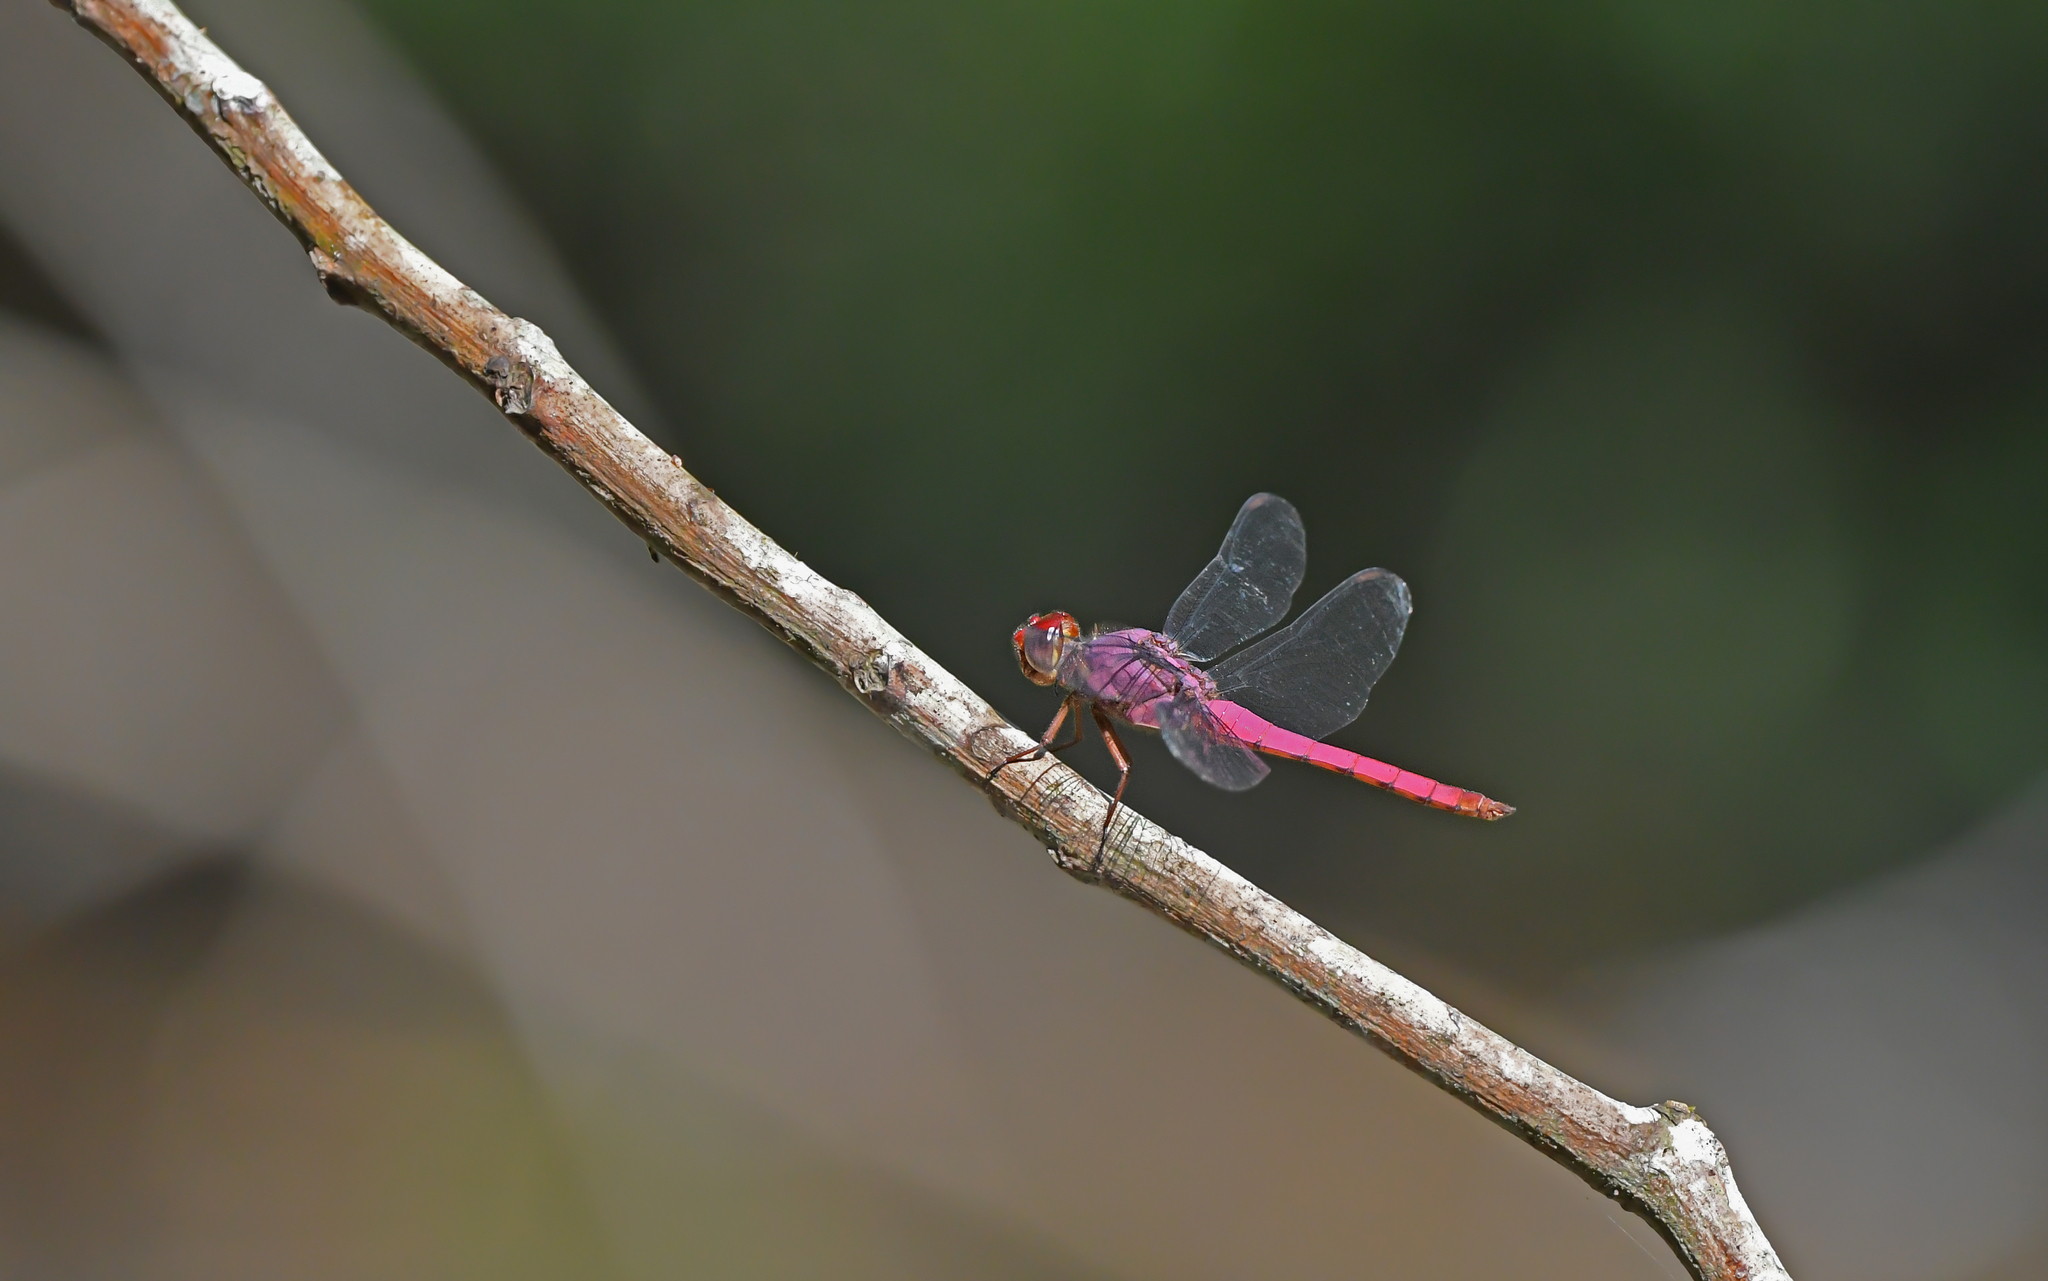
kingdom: Animalia
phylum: Arthropoda
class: Insecta
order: Odonata
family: Libellulidae
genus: Orthemis
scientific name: Orthemis discolor
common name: Carmine skimmer
